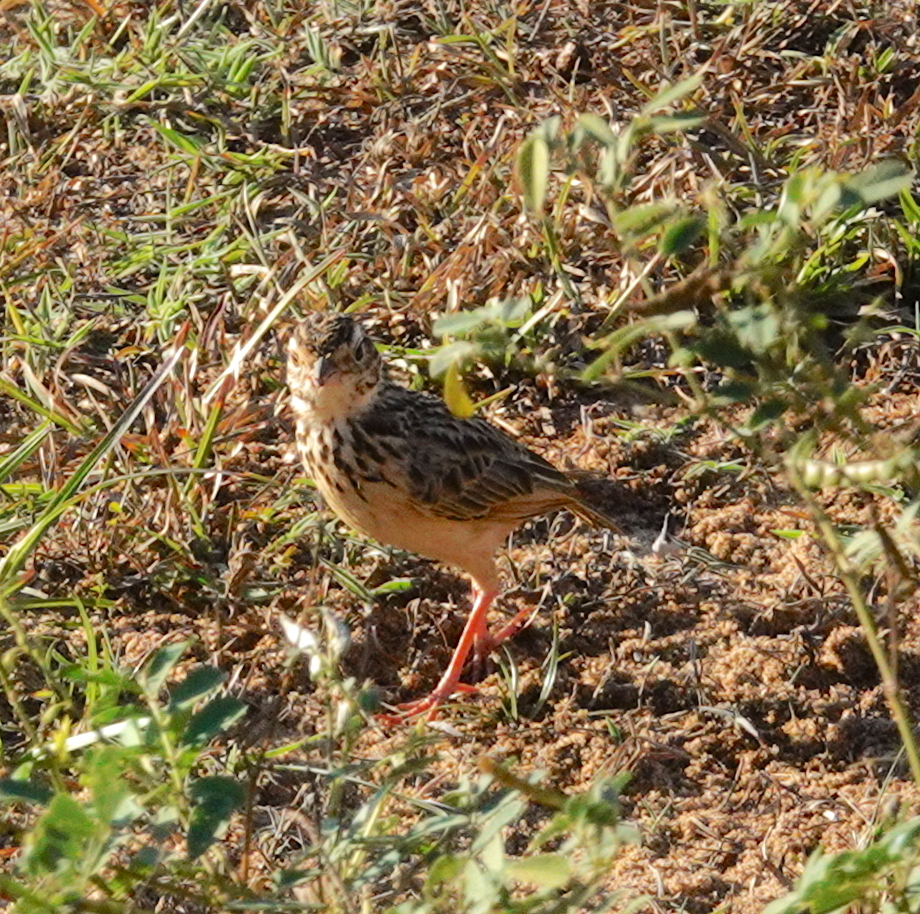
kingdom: Animalia
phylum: Chordata
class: Aves
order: Passeriformes
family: Alaudidae
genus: Mirafra
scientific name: Mirafra affinis
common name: Jerdon's bushlark
